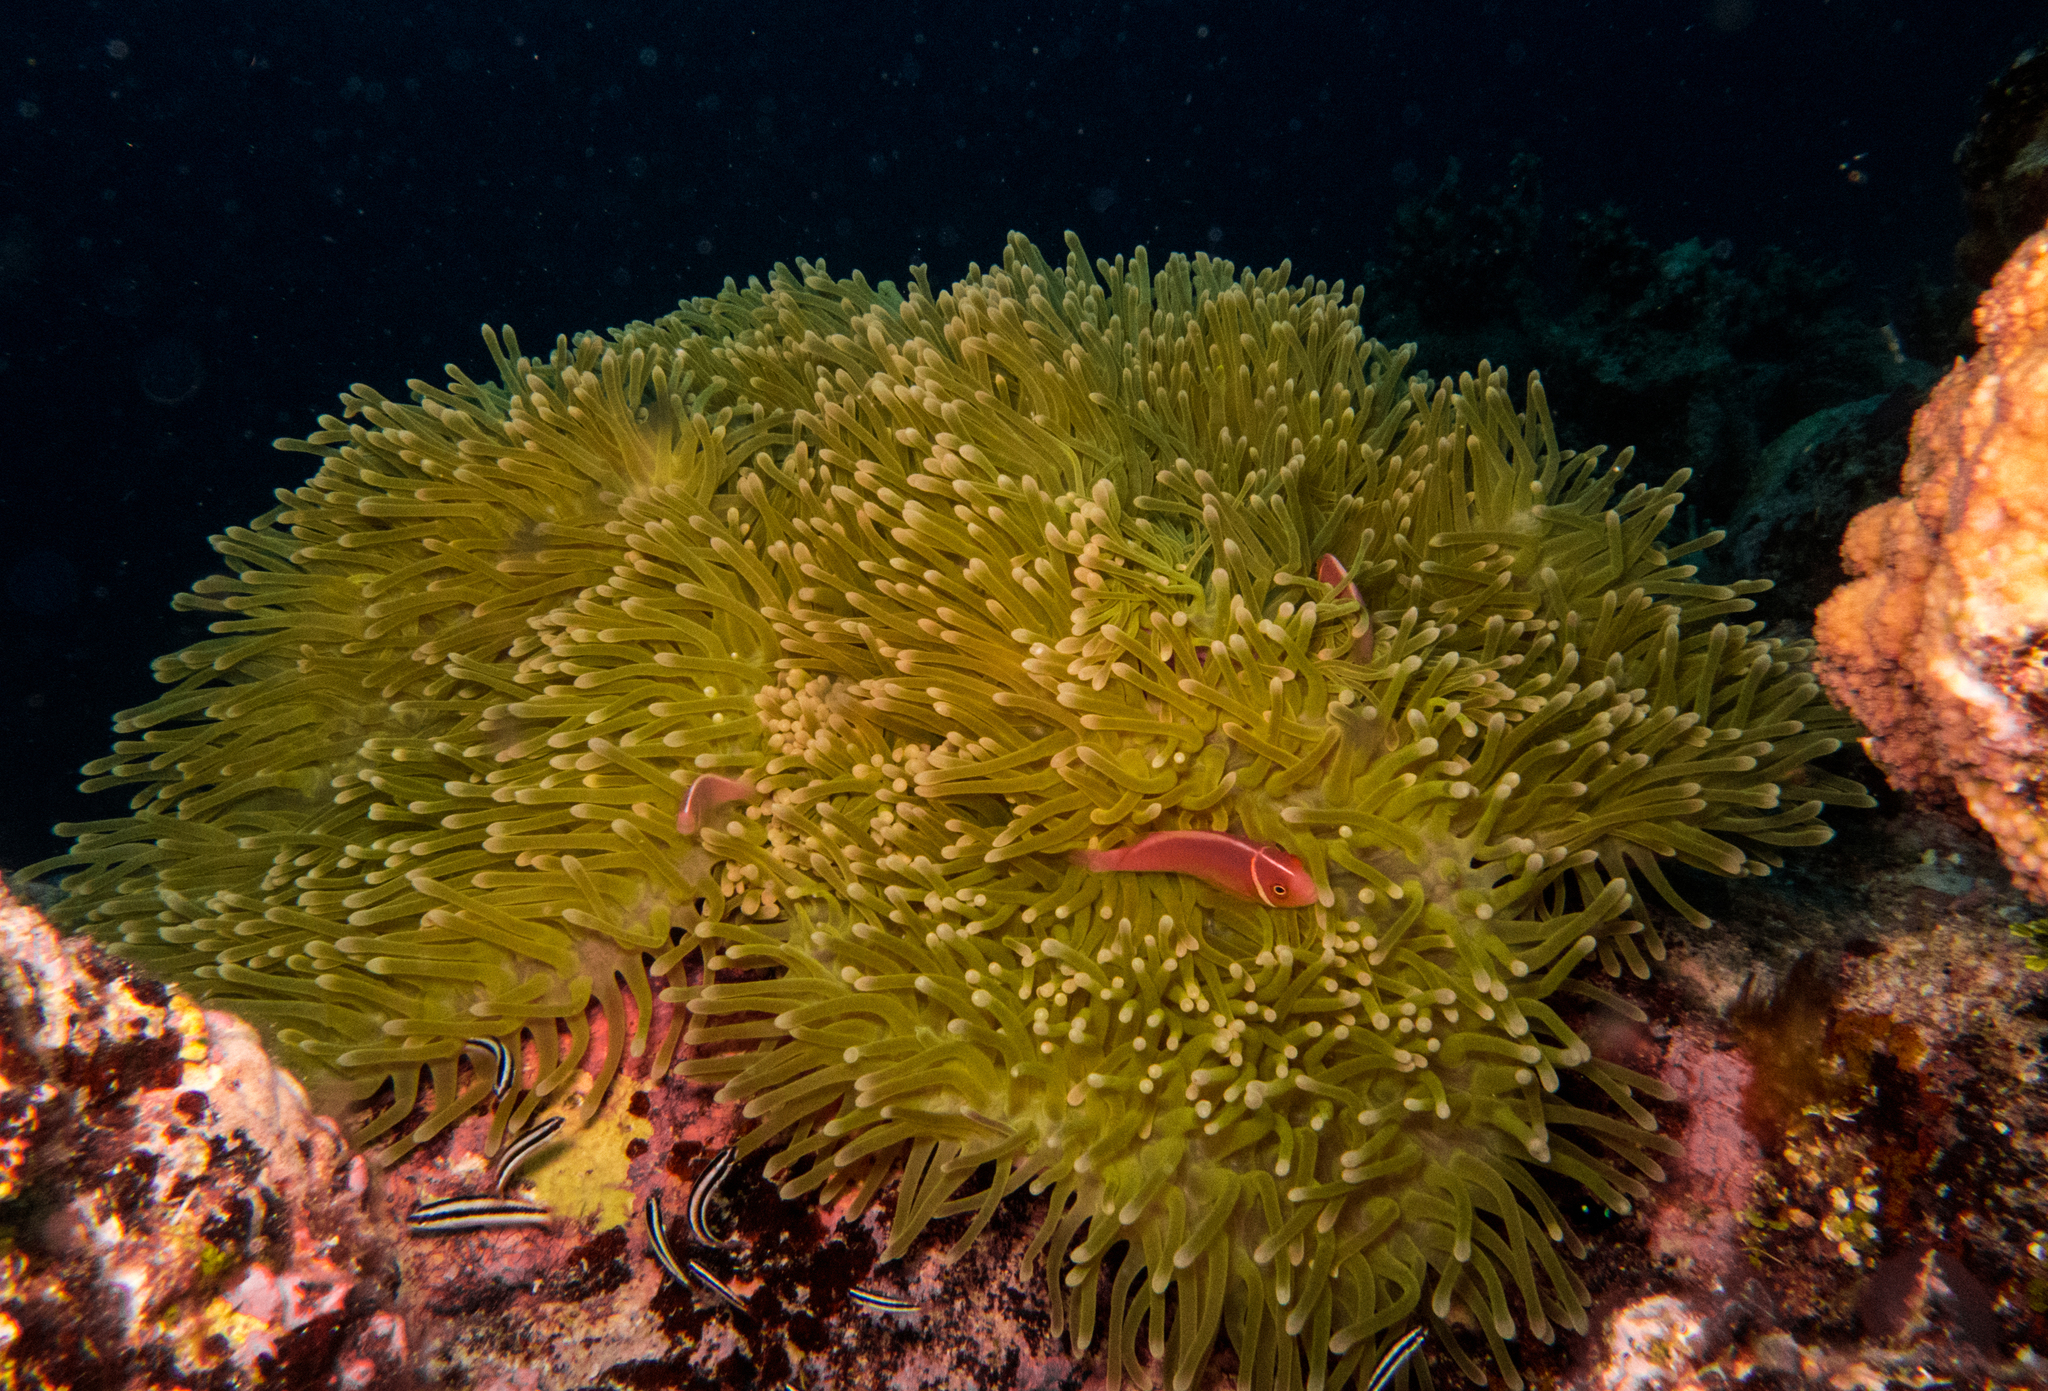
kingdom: Animalia
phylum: Cnidaria
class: Anthozoa
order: Actiniaria
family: Stichodactylidae
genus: Radianthus
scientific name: Radianthus magnifica
